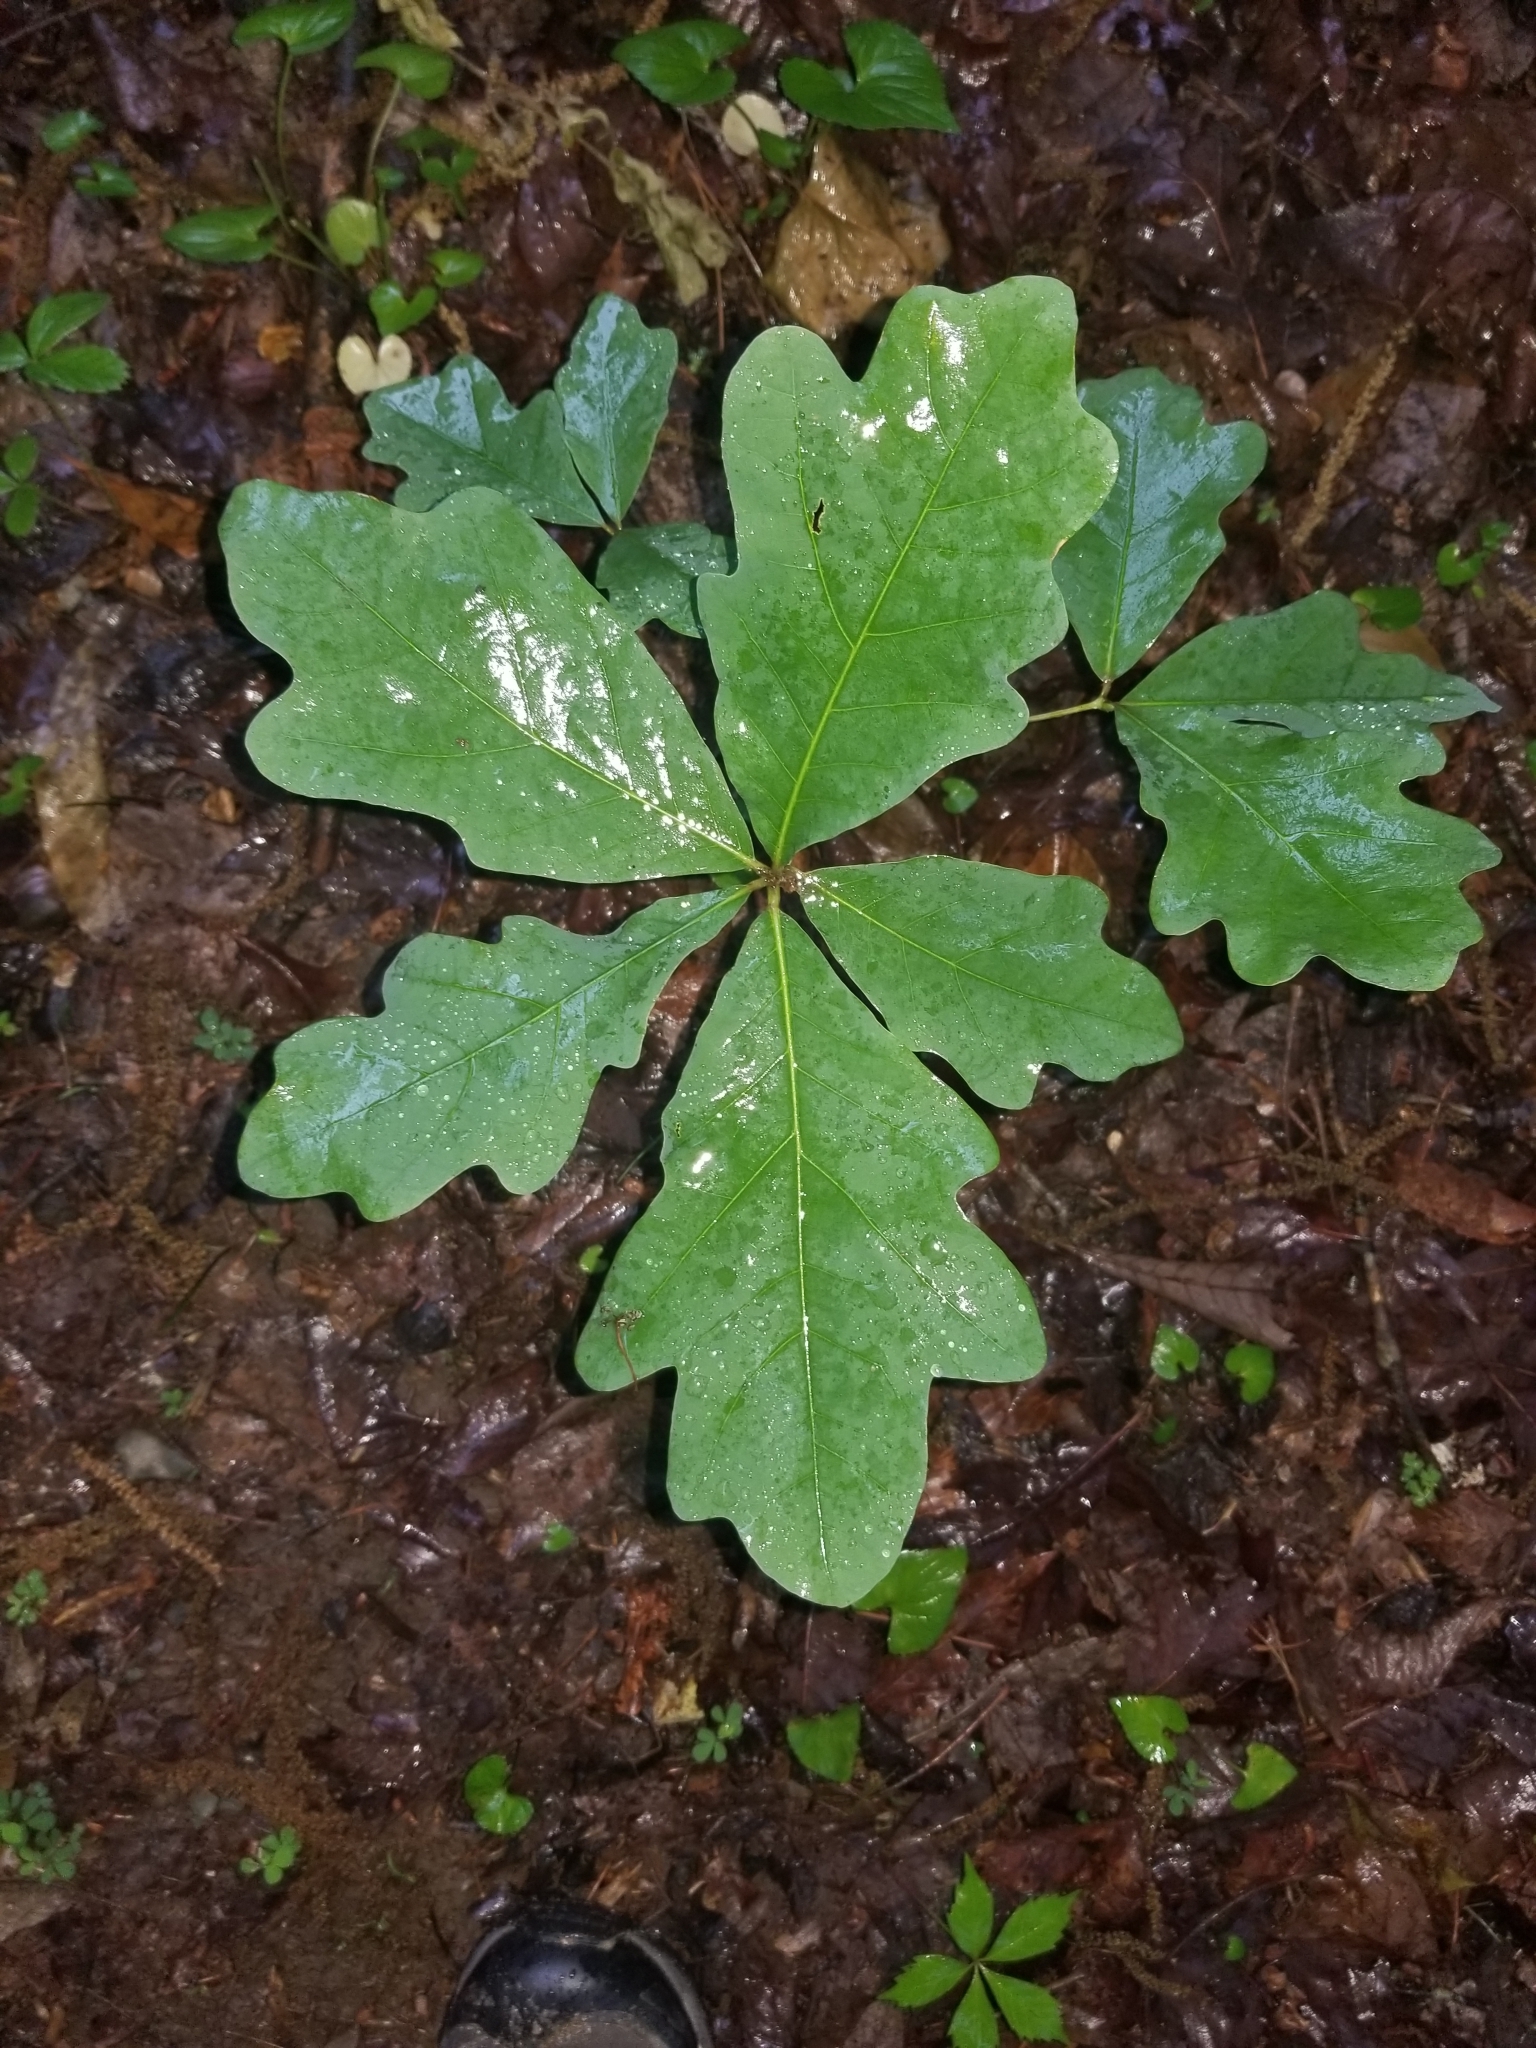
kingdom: Plantae
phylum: Tracheophyta
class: Magnoliopsida
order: Fagales
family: Fagaceae
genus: Quercus
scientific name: Quercus alba
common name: White oak
